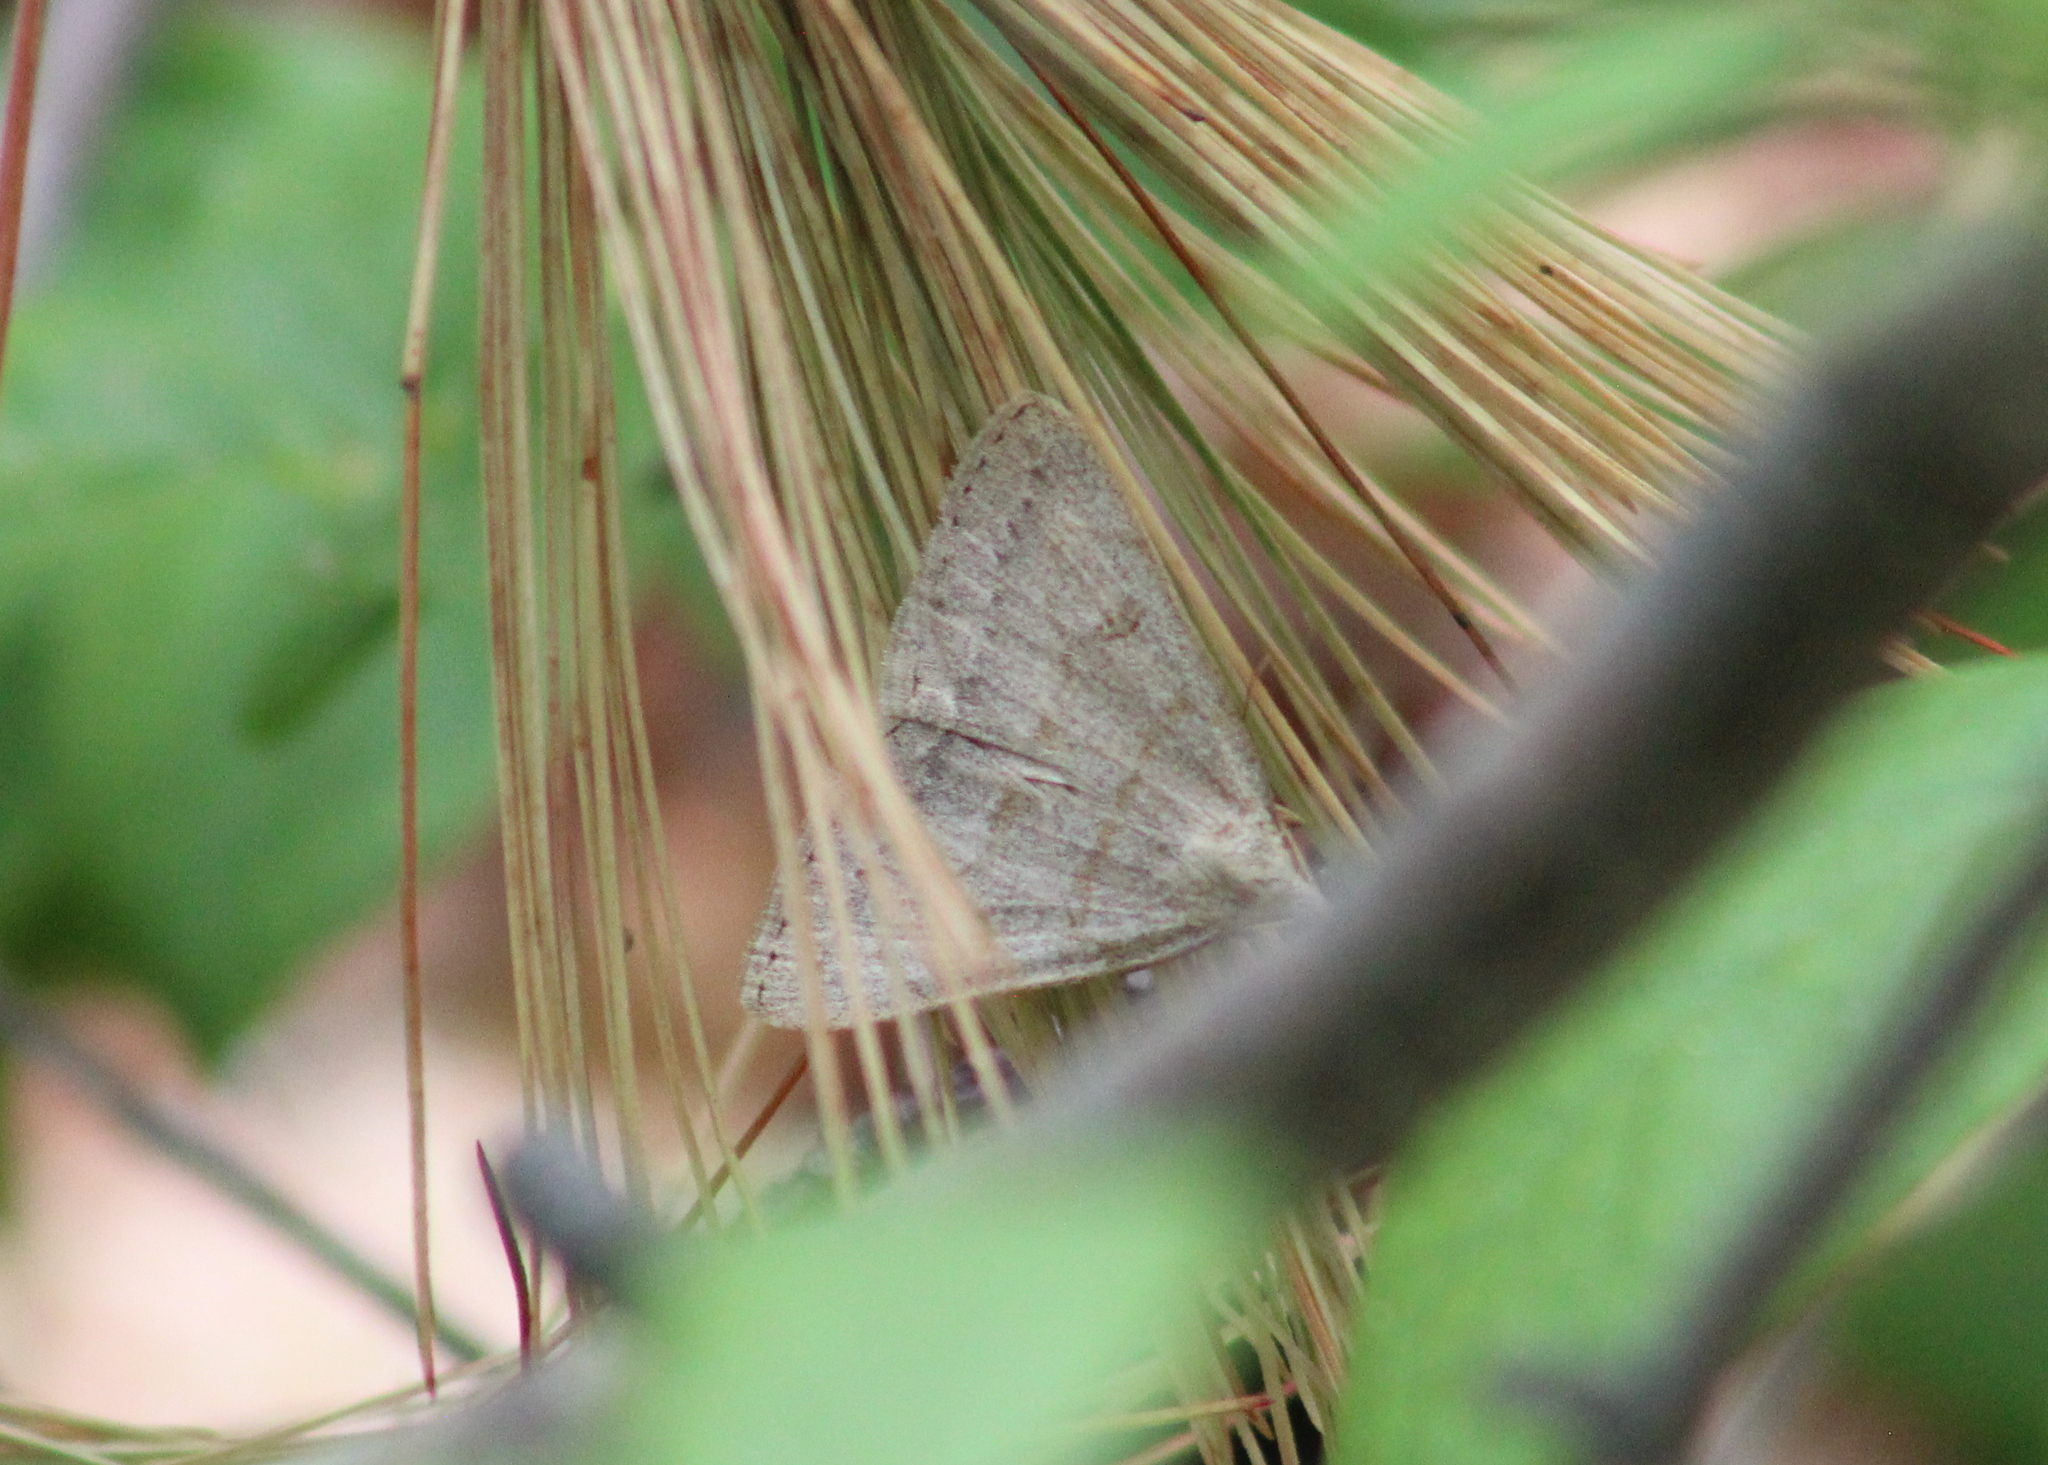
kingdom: Animalia
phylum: Arthropoda
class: Insecta
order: Lepidoptera
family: Erebidae
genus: Macrochilo
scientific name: Macrochilo morbidalis
